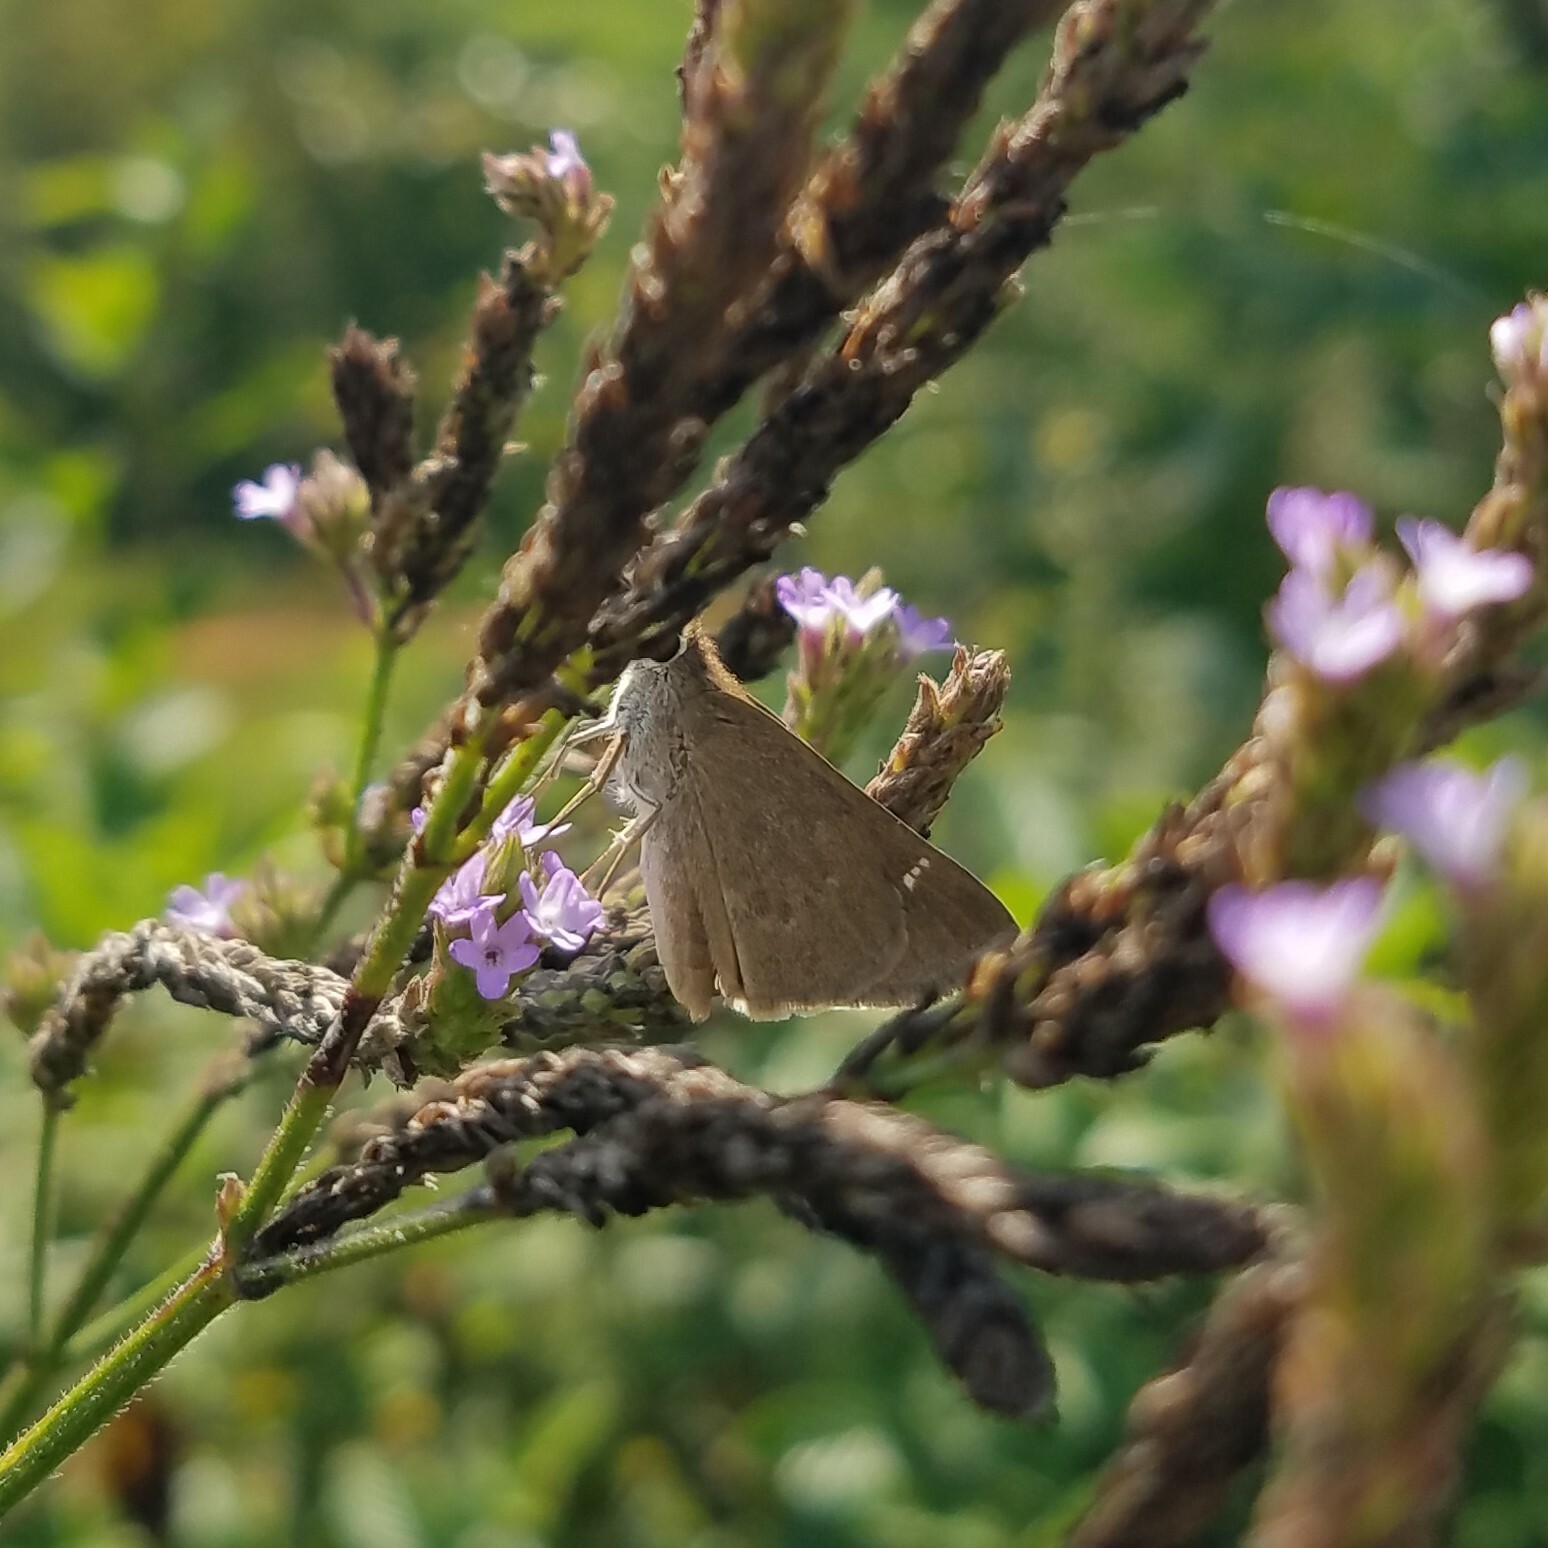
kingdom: Animalia
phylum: Arthropoda
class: Insecta
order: Lepidoptera
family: Hesperiidae
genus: Lerodea
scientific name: Lerodea eufala
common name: Eufala skipper
